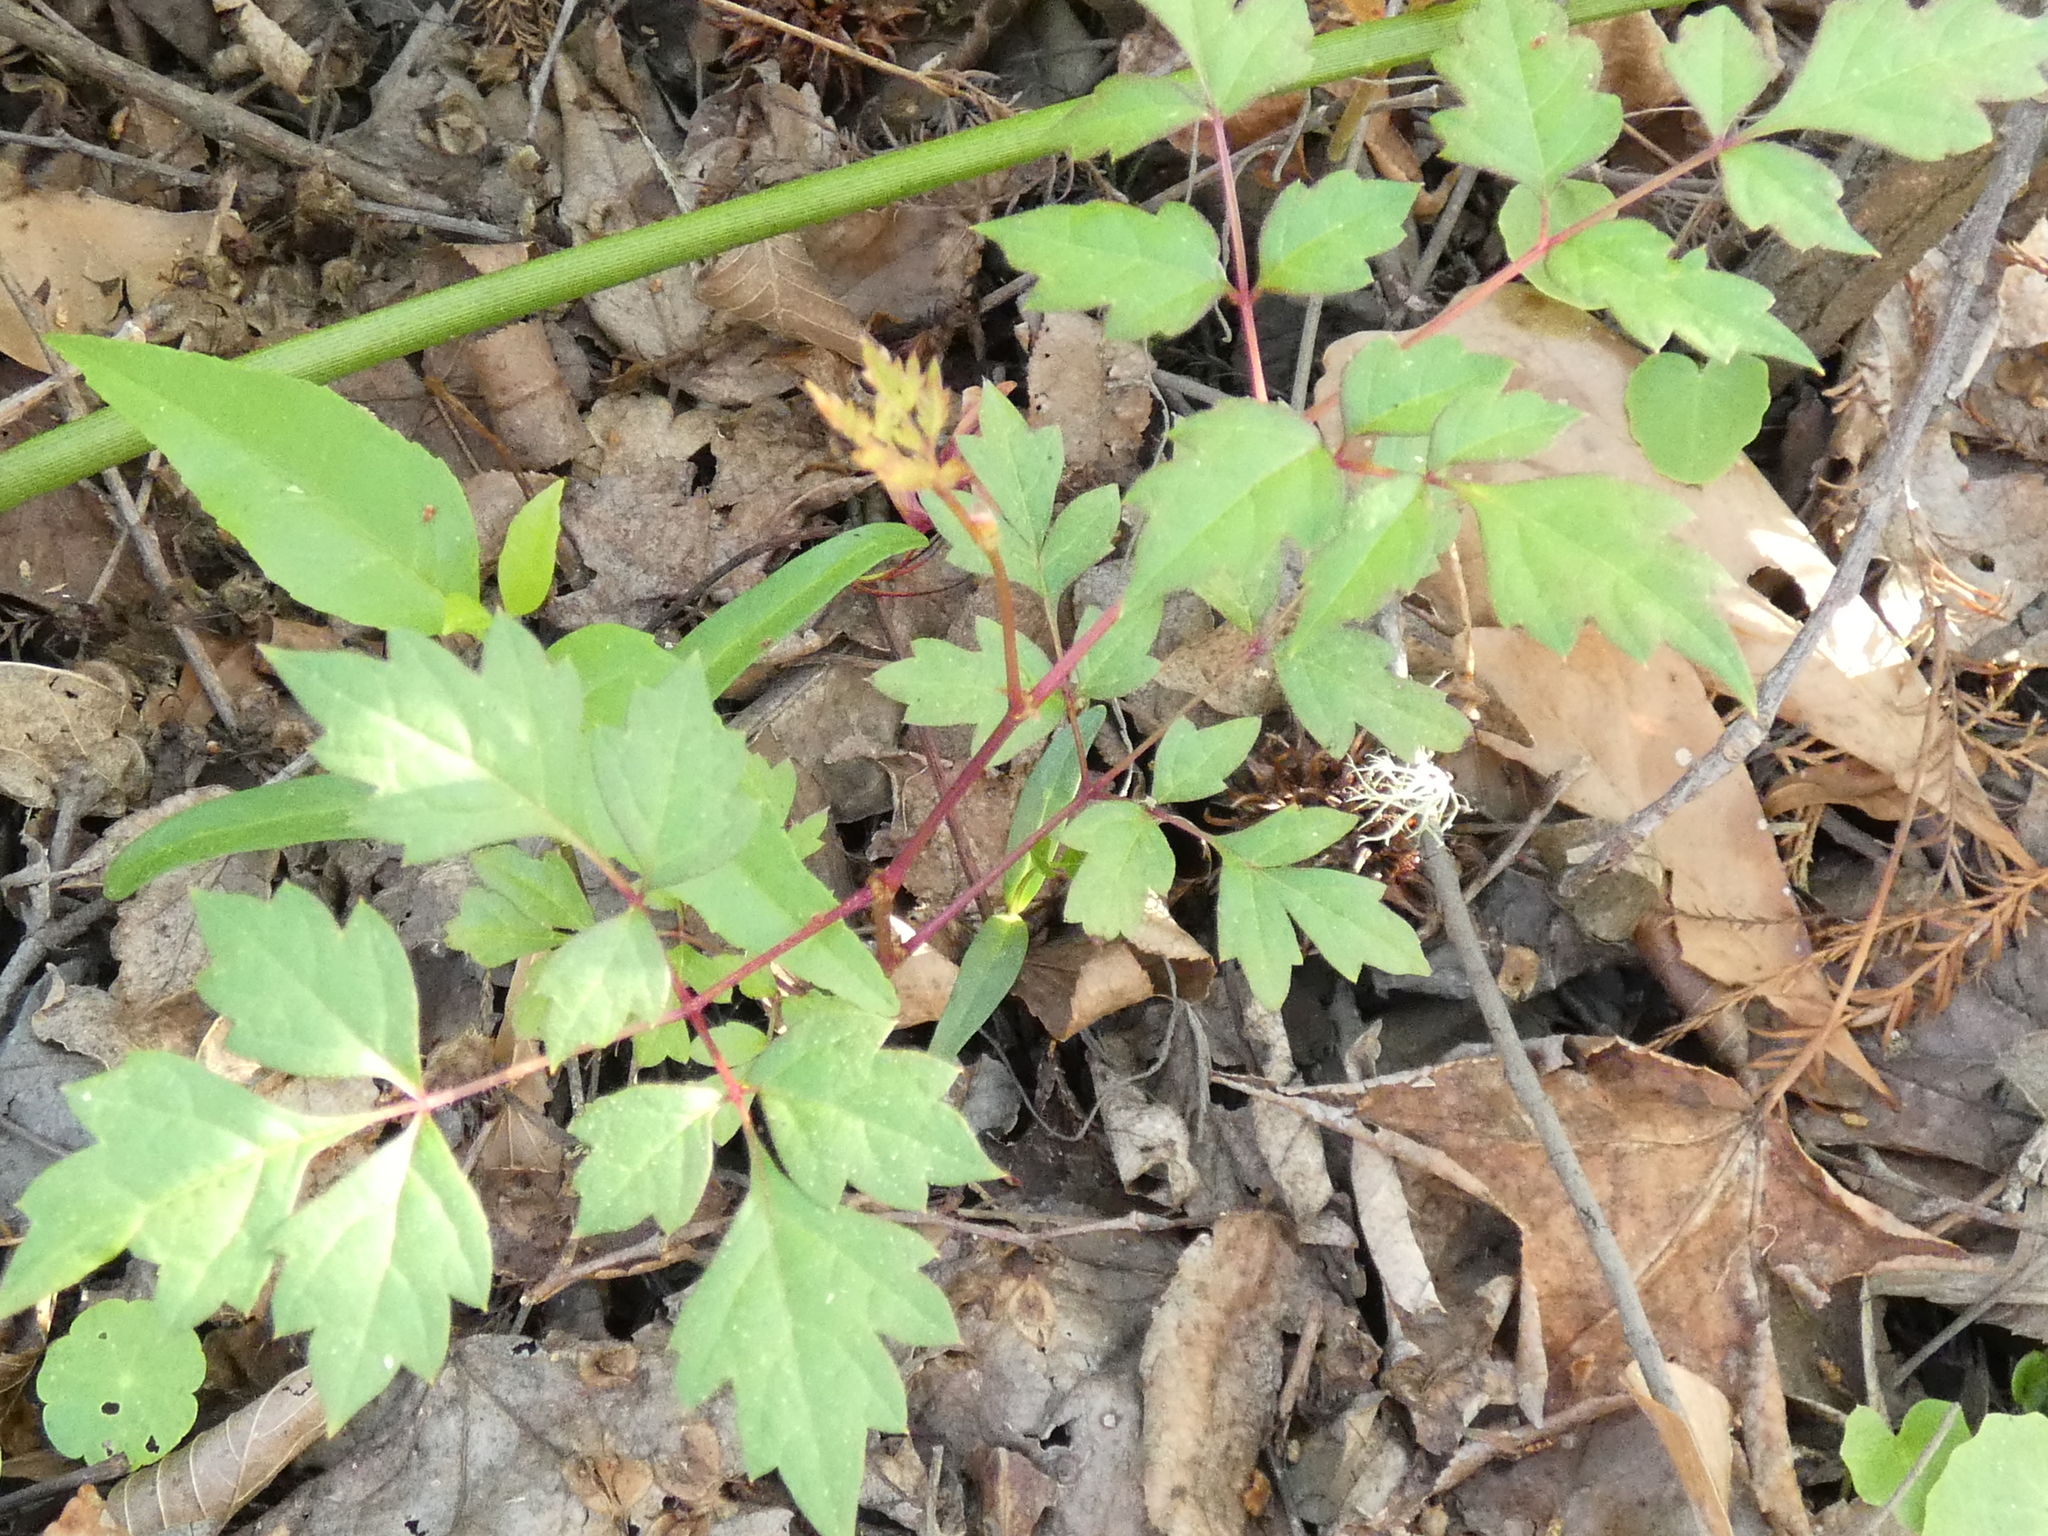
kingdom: Plantae
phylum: Tracheophyta
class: Magnoliopsida
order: Vitales
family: Vitaceae
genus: Nekemias
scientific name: Nekemias arborea
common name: Peppervine
